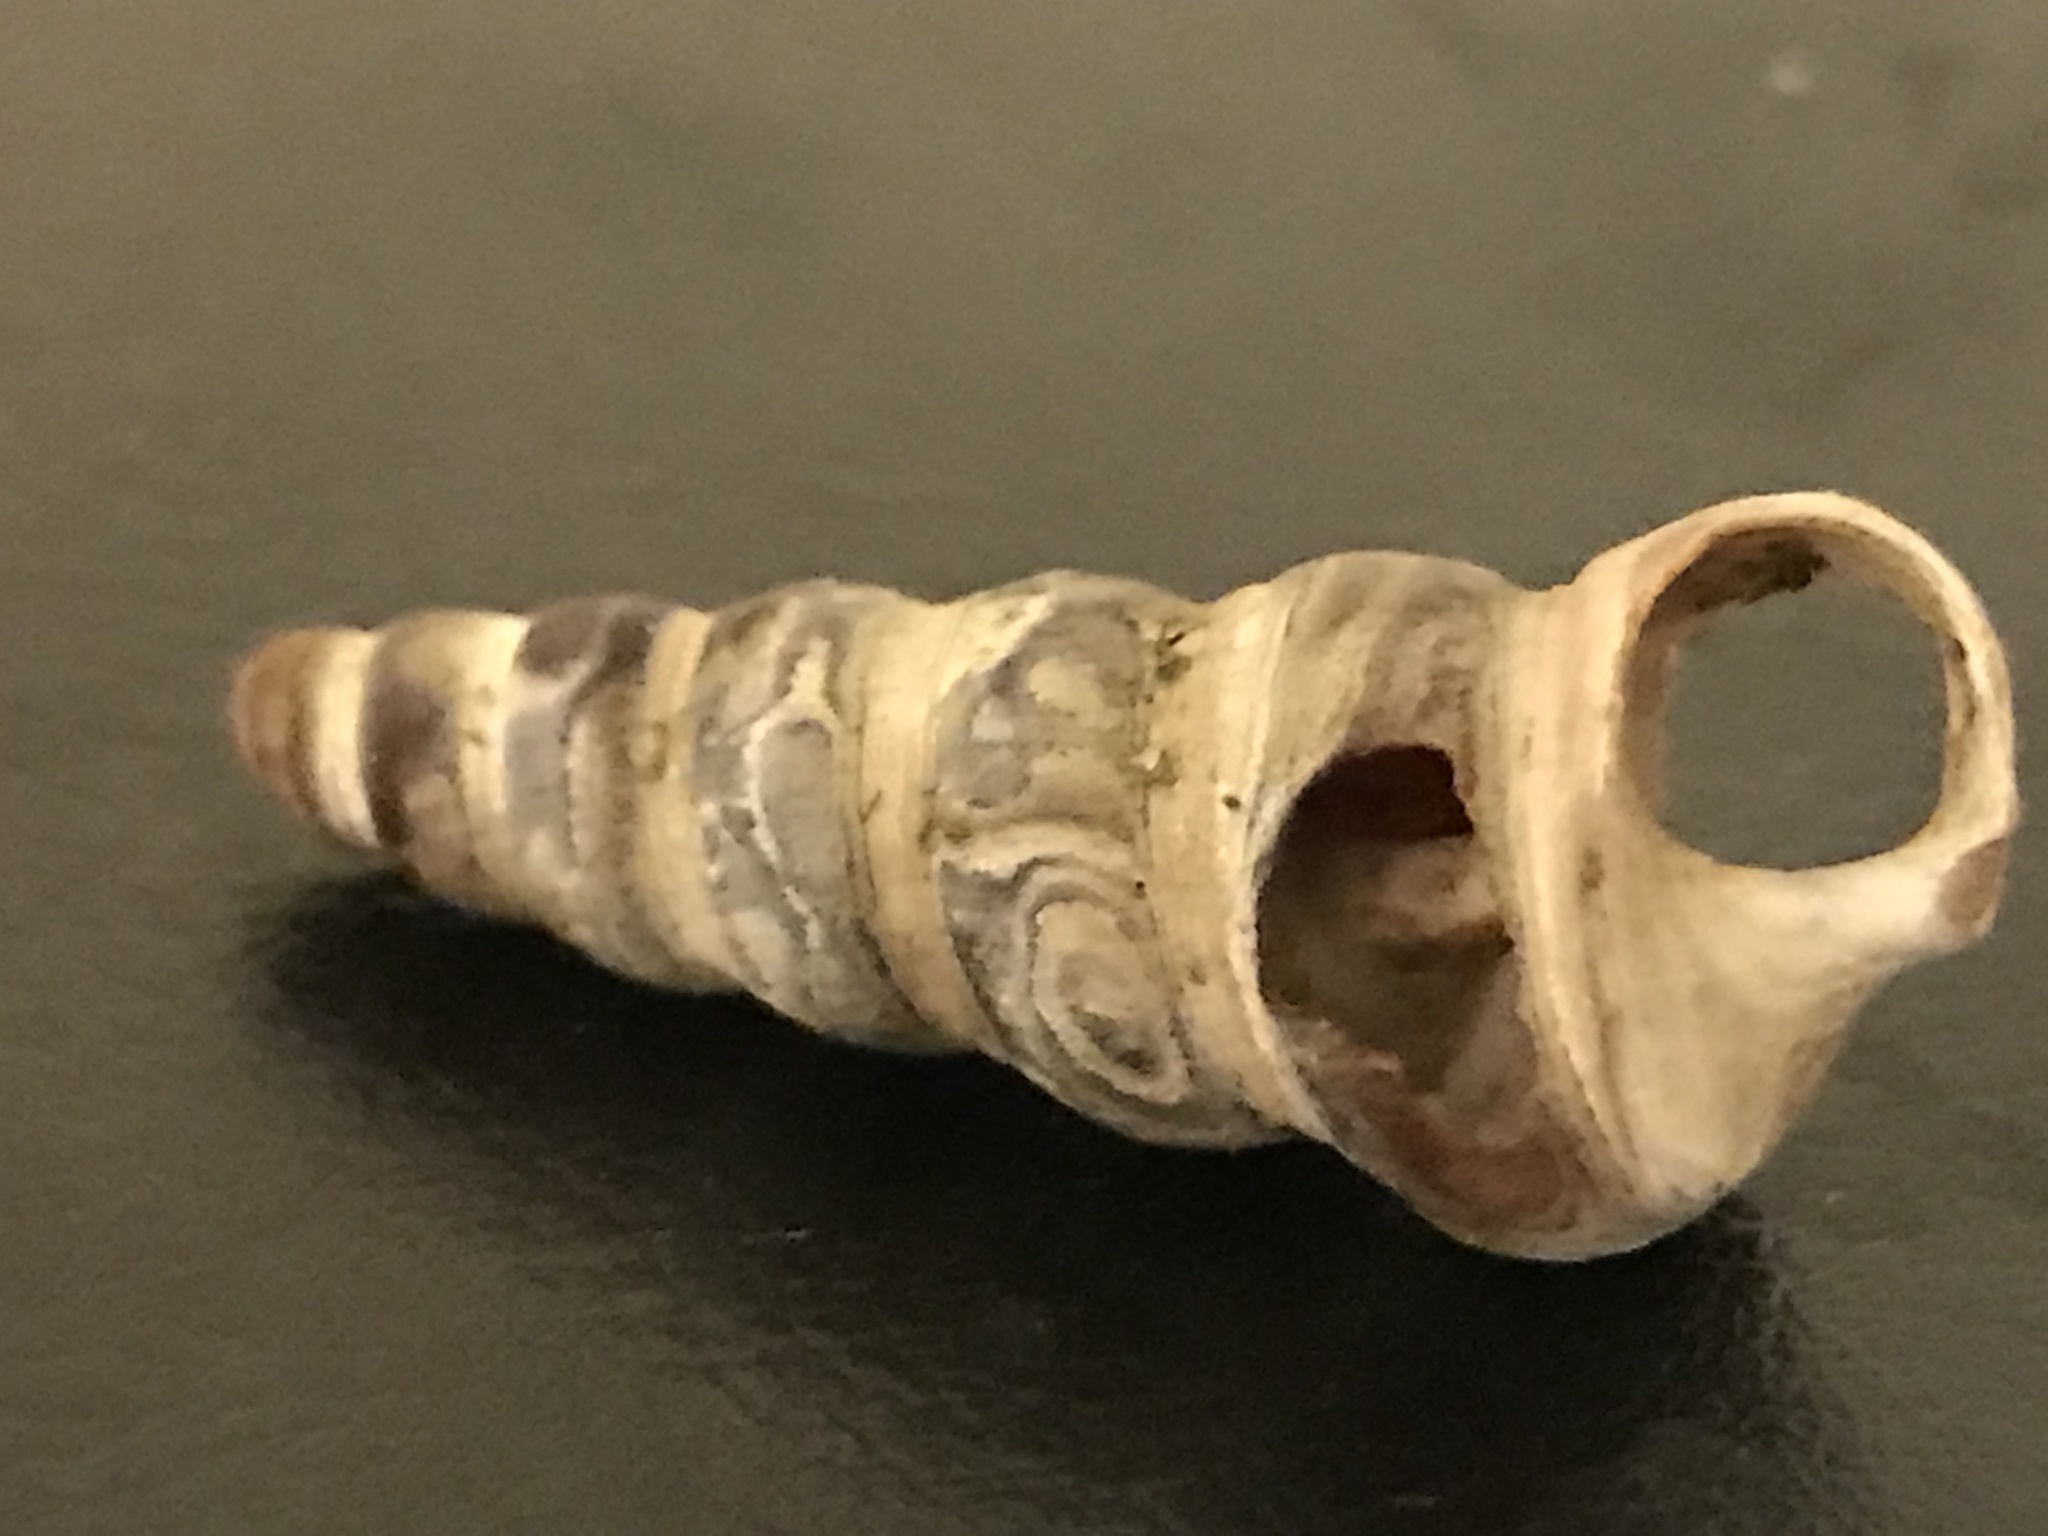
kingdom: Animalia
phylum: Mollusca
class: Gastropoda
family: Potamididae
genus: Cerithideopsis
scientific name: Cerithideopsis californica
